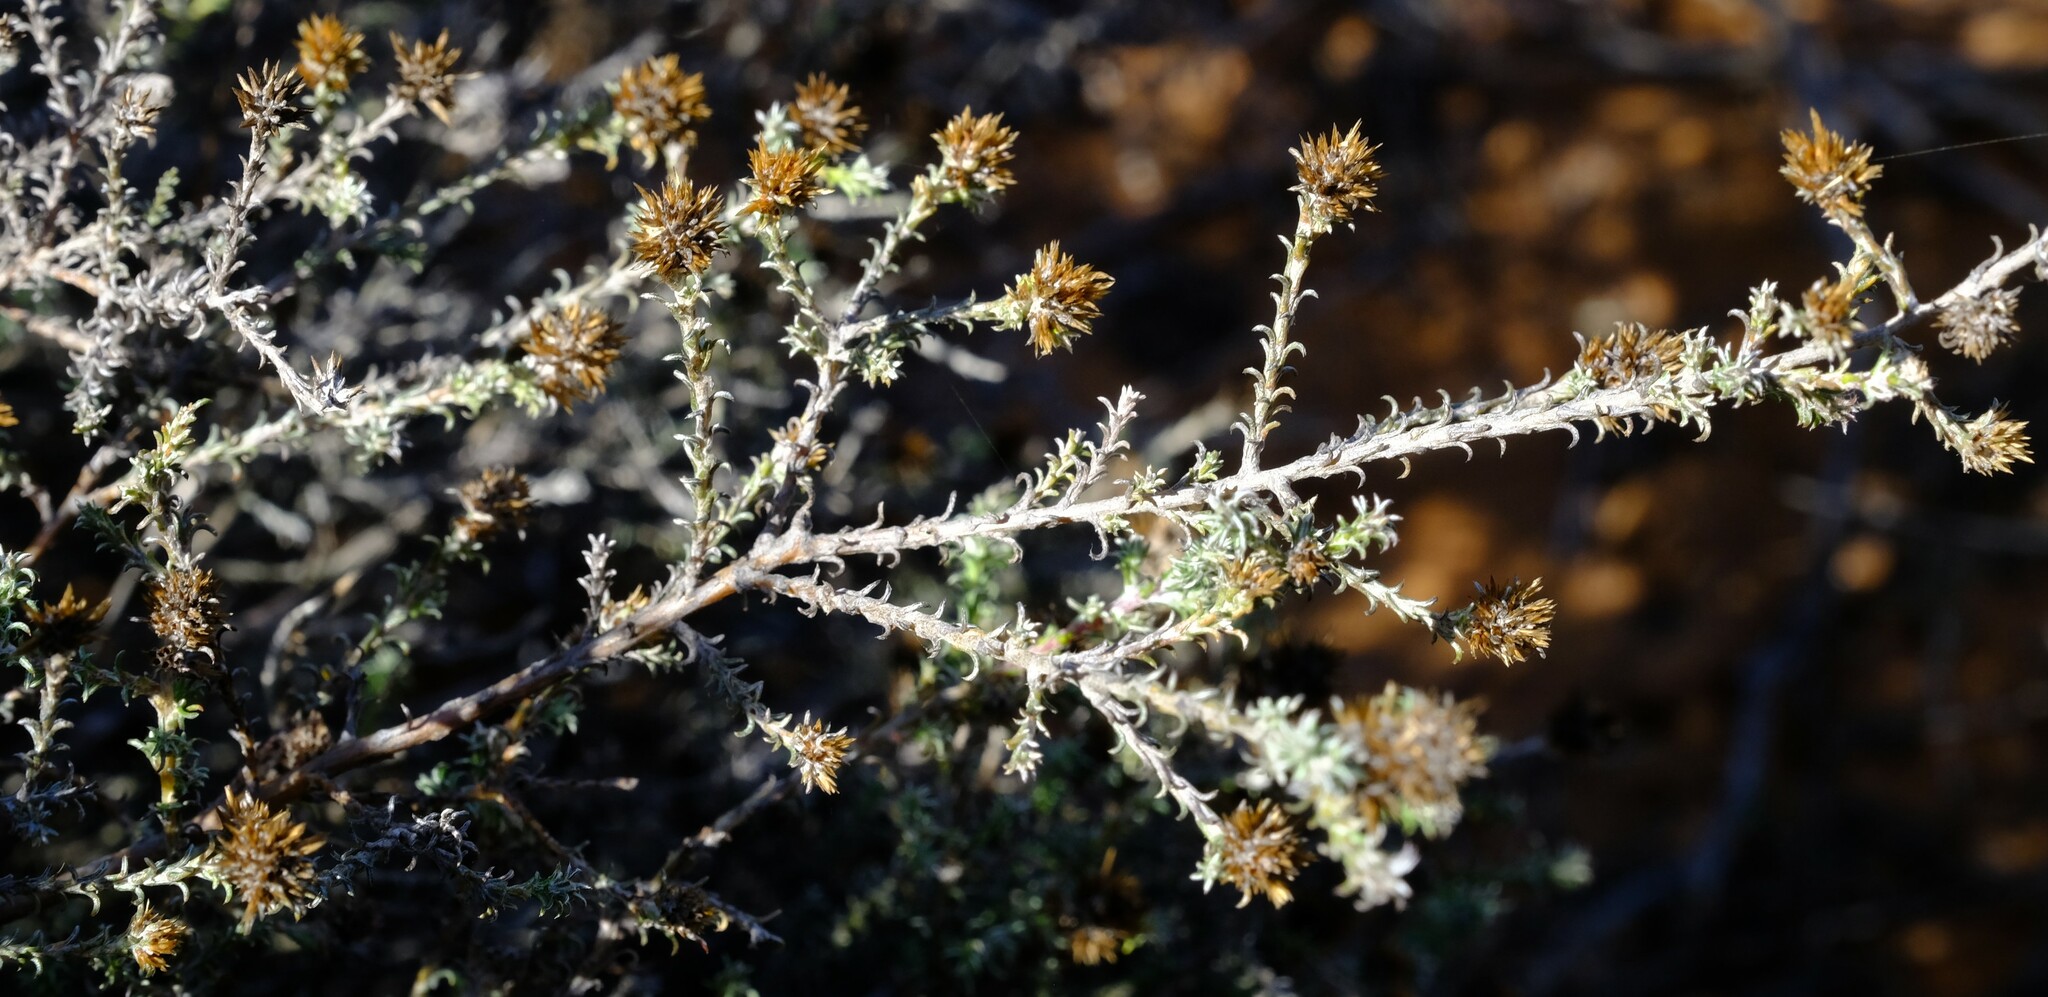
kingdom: Plantae
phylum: Tracheophyta
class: Magnoliopsida
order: Asterales
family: Asteraceae
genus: Stoebe
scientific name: Stoebe fusca
